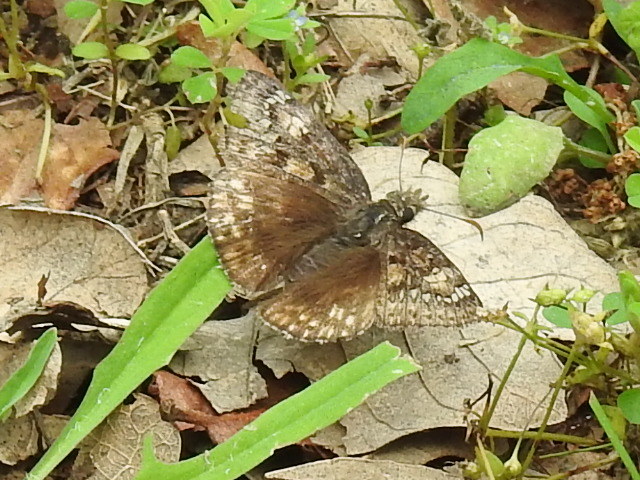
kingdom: Animalia
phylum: Arthropoda
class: Insecta
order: Lepidoptera
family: Hesperiidae
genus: Erynnis
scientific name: Erynnis juvenalis
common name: Juvenal's duskywing
